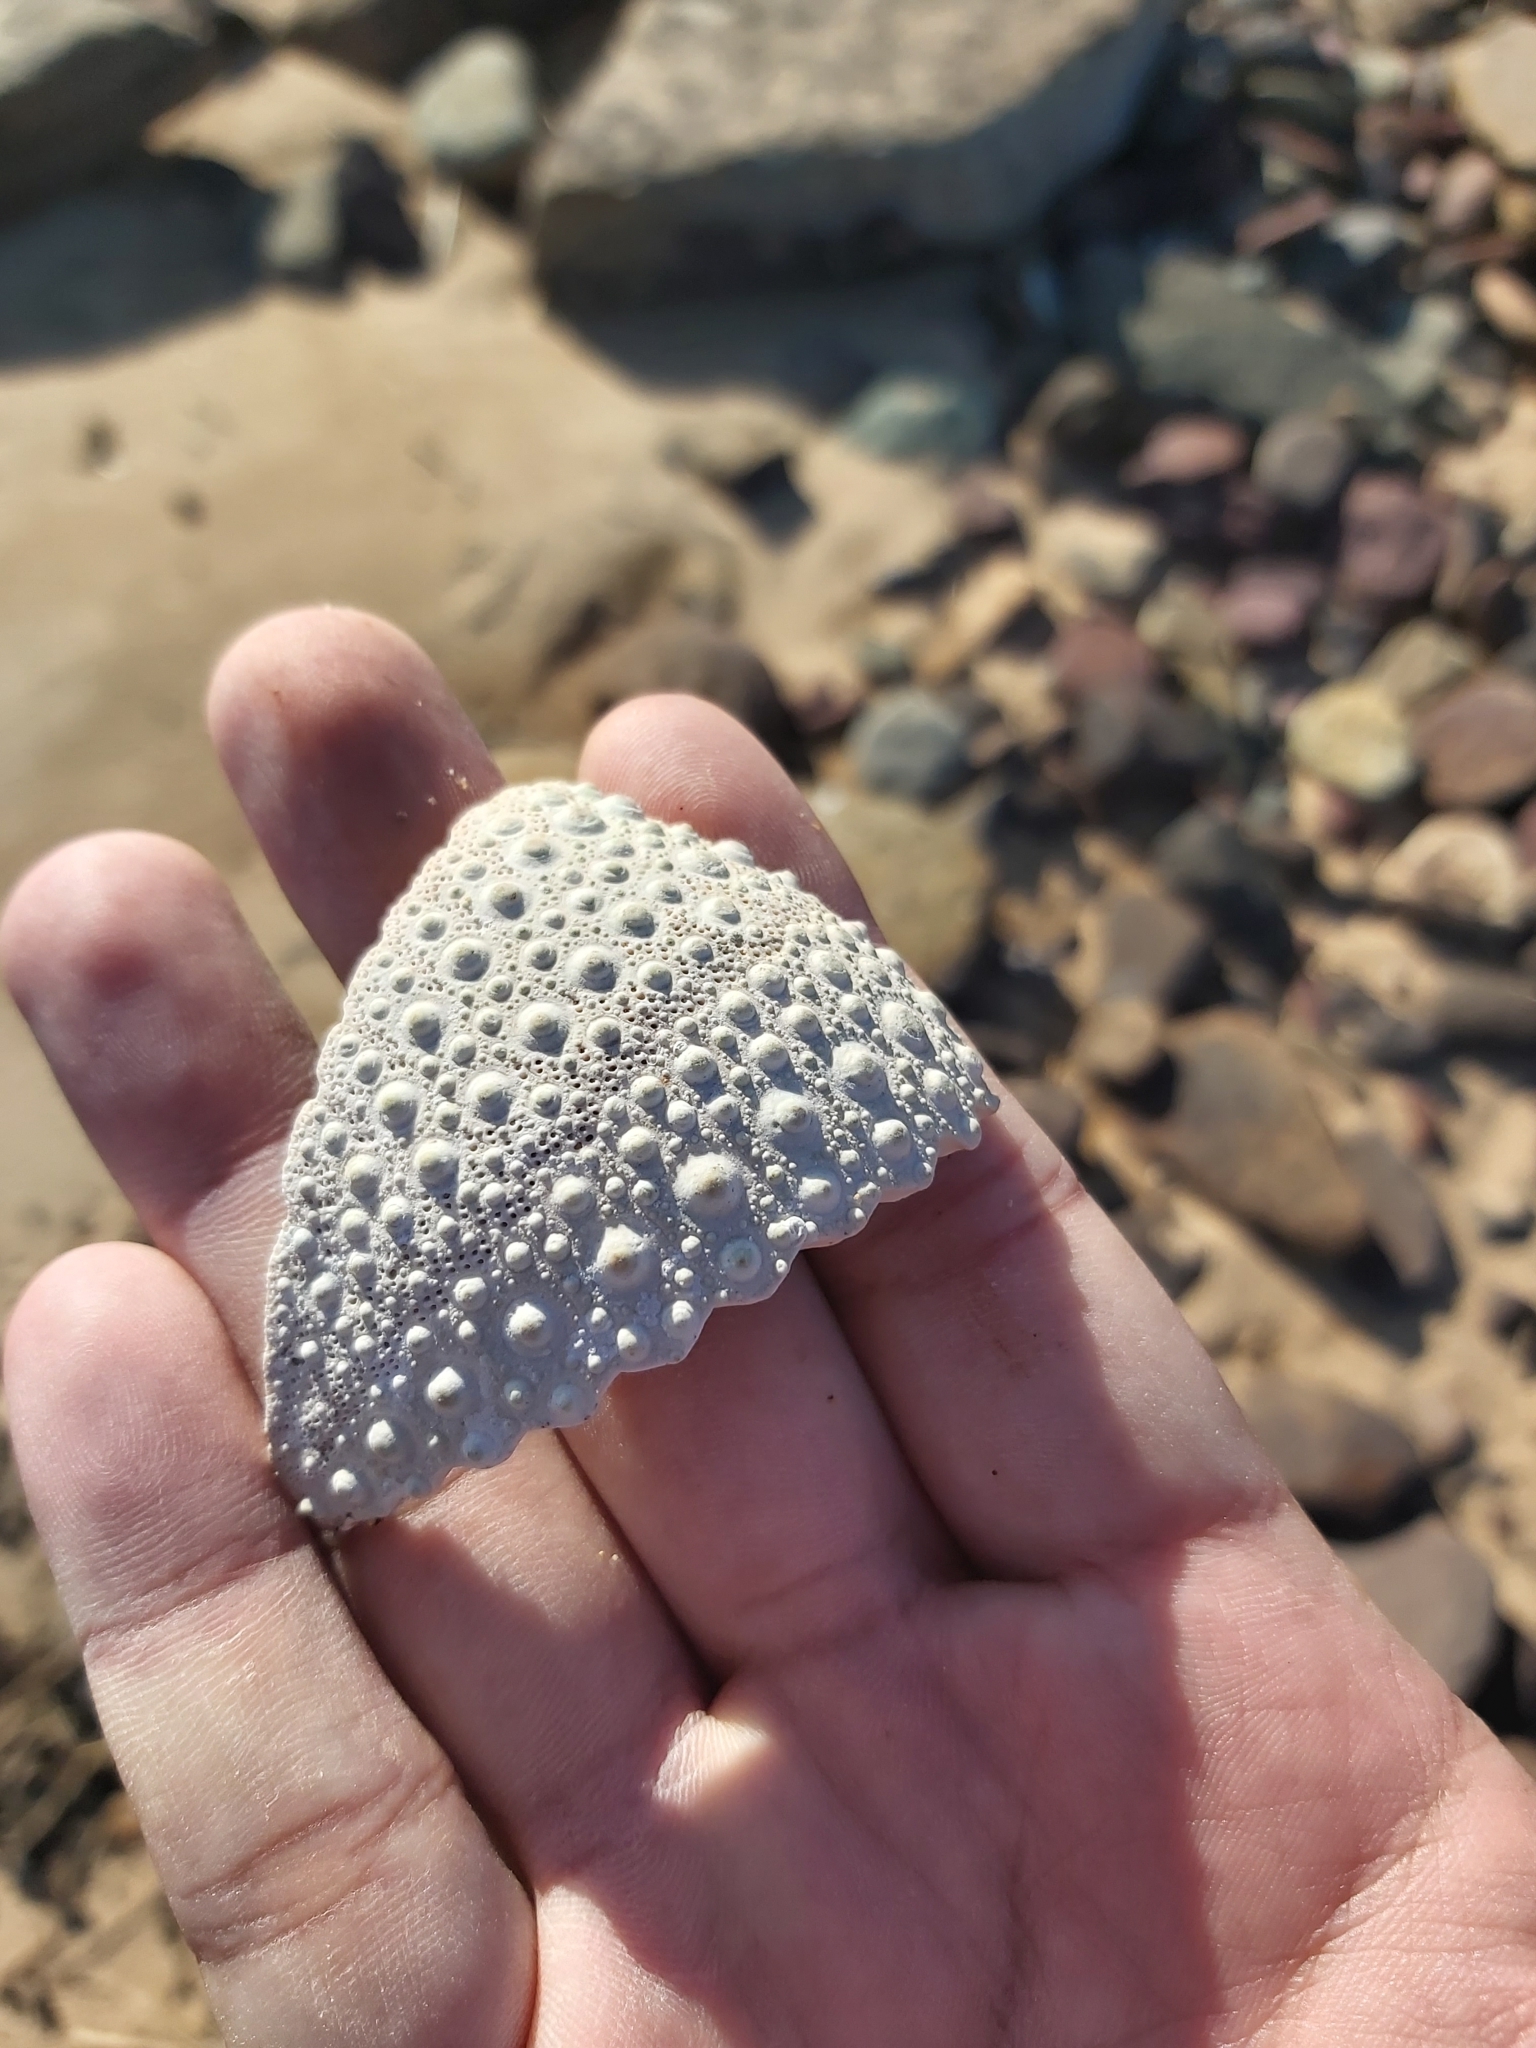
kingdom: Animalia
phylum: Echinodermata
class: Echinoidea
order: Camarodonta
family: Echinometridae
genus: Heliocidaris
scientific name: Heliocidaris erythrogramma
